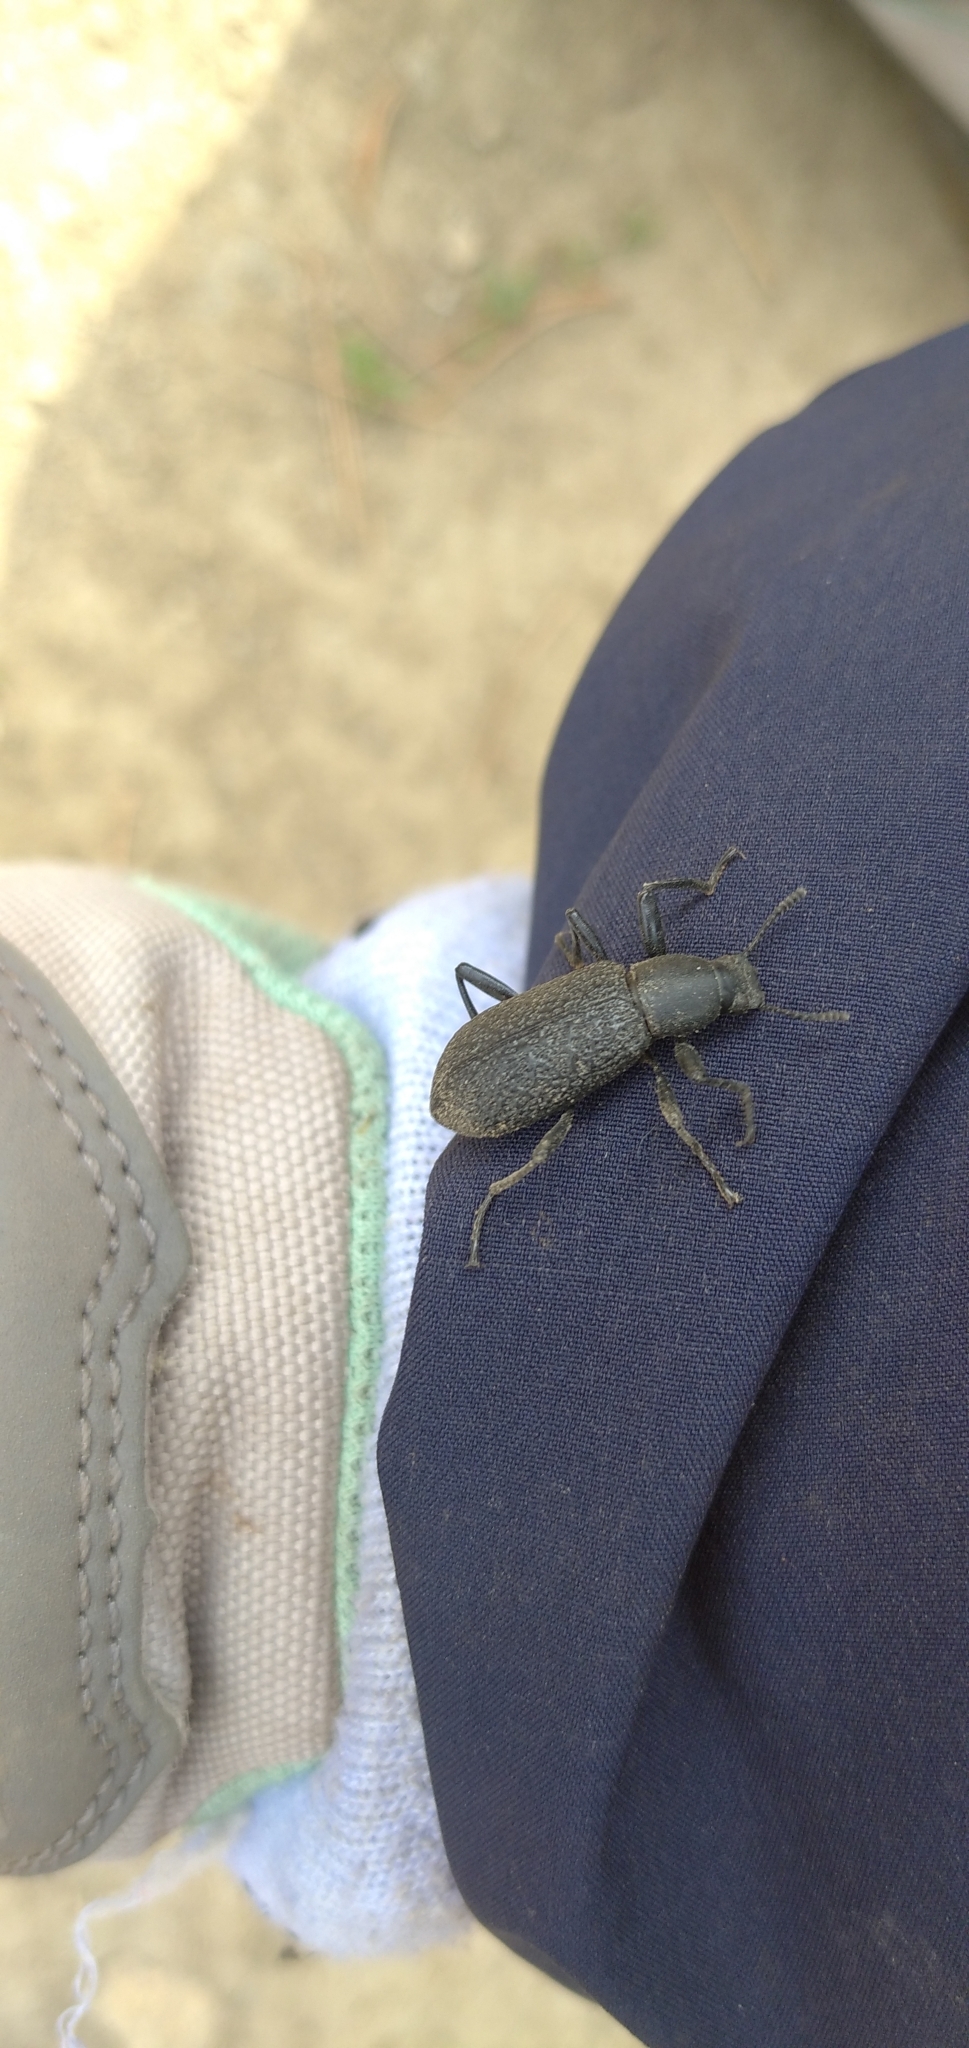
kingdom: Animalia
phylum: Arthropoda
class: Insecta
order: Coleoptera
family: Tenebrionidae
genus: Upis
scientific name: Upis ceramboides
